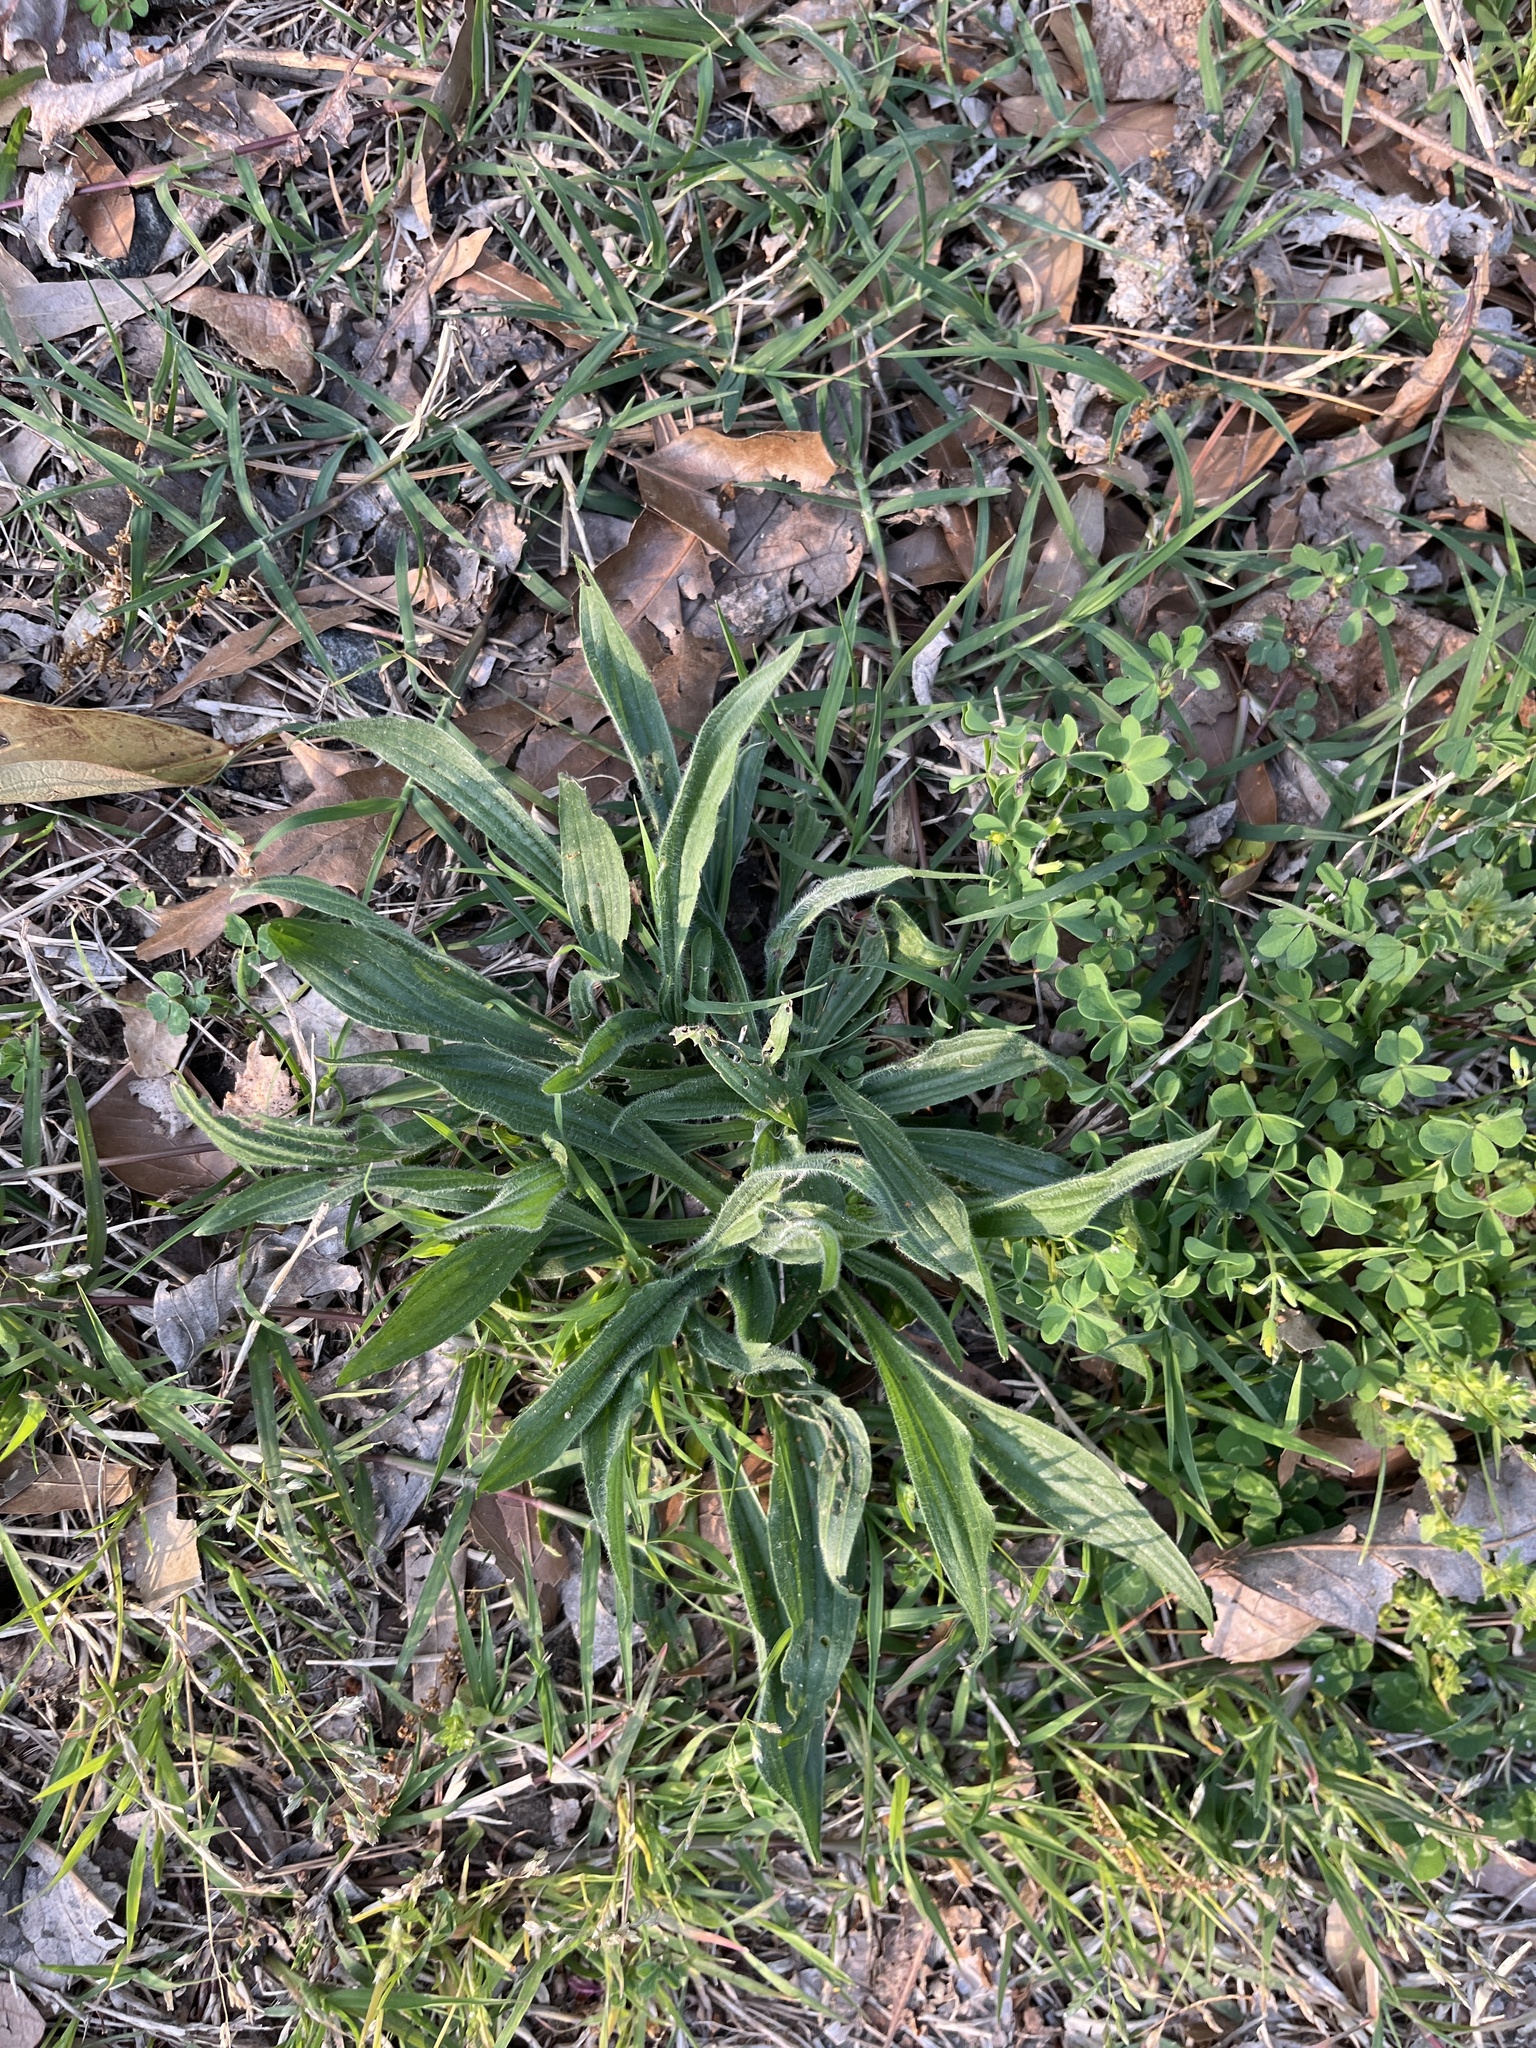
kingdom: Plantae
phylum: Tracheophyta
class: Magnoliopsida
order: Lamiales
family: Plantaginaceae
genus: Plantago
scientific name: Plantago lanceolata
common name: Ribwort plantain
